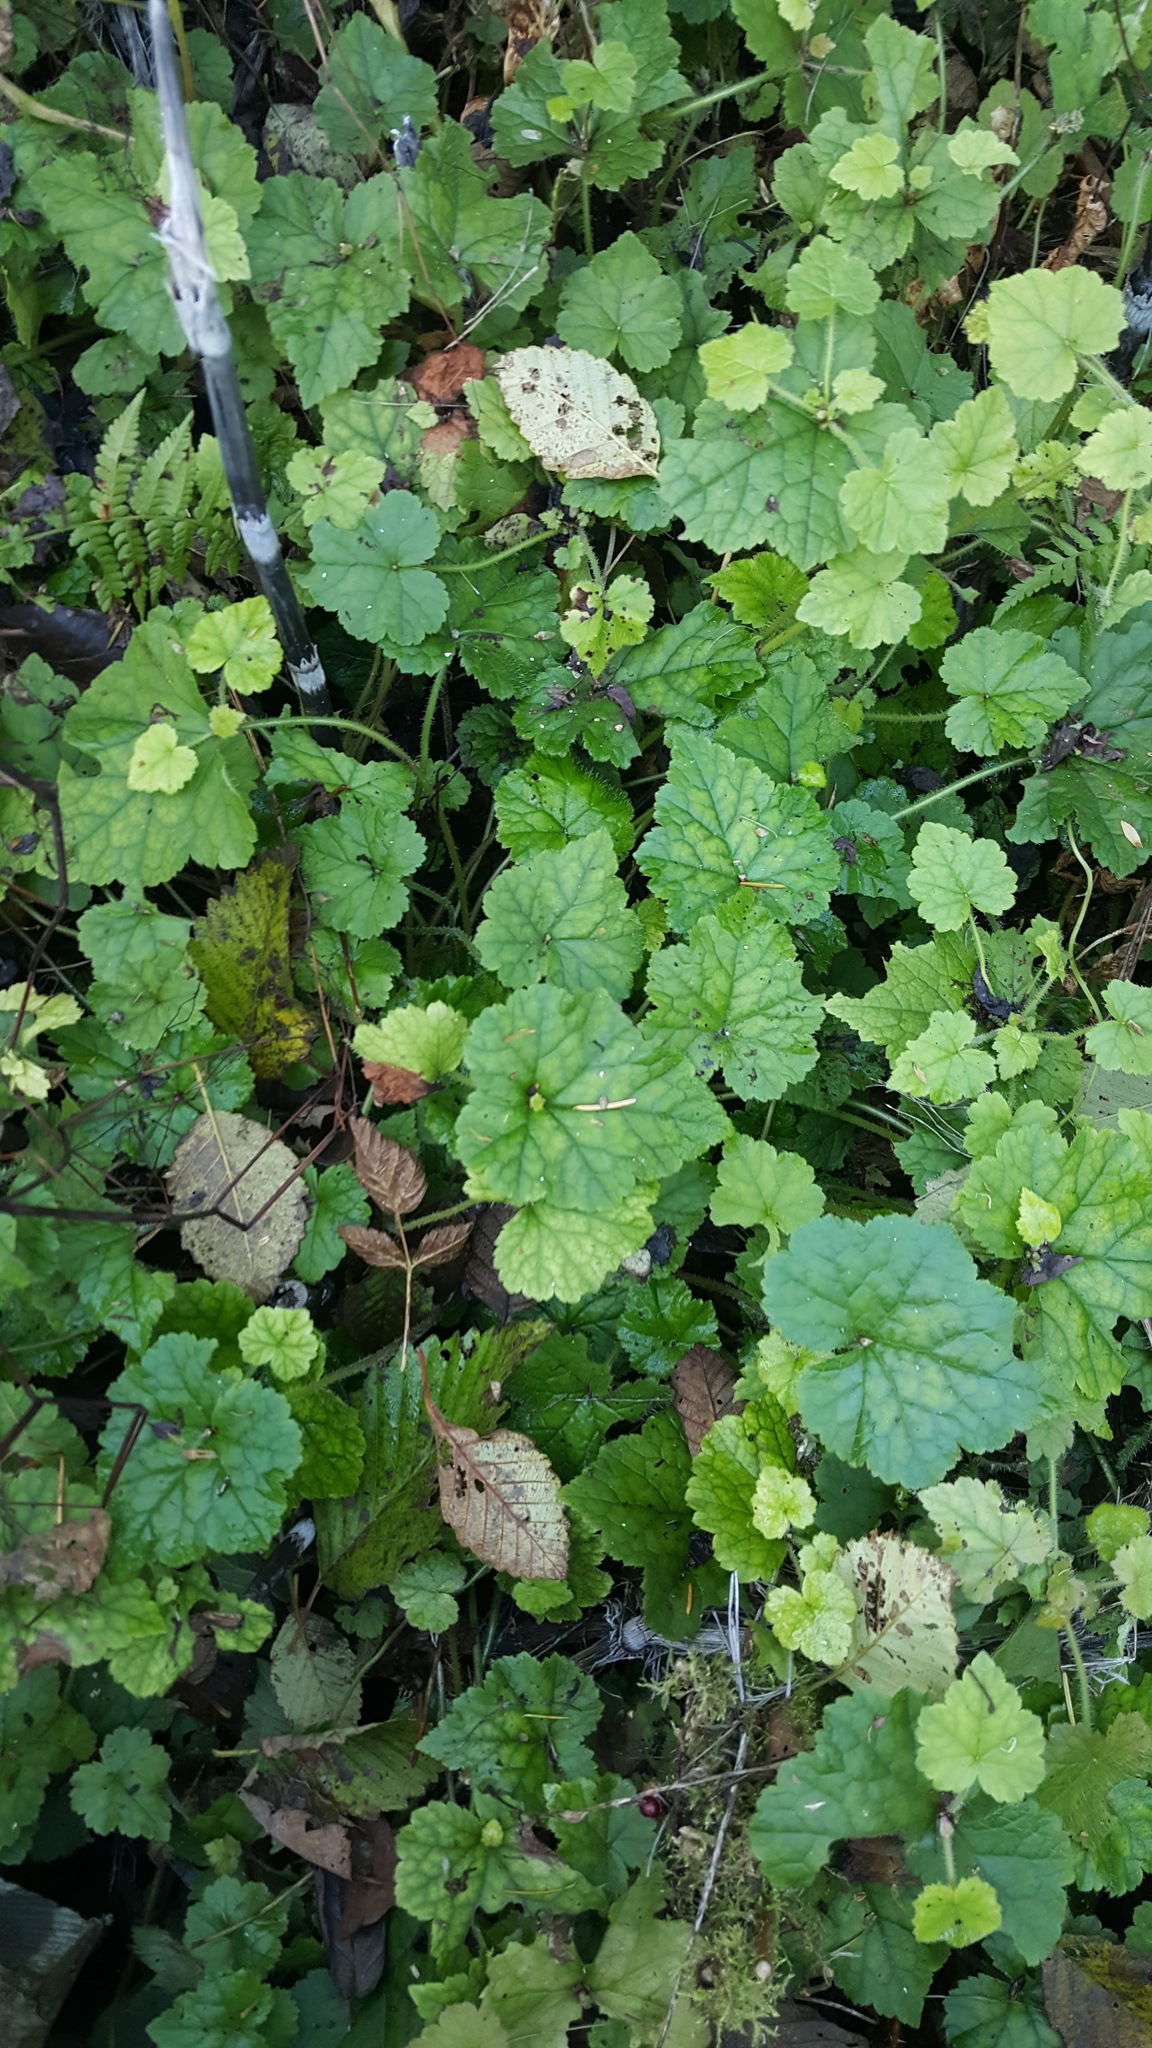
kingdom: Plantae
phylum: Tracheophyta
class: Magnoliopsida
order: Saxifragales
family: Saxifragaceae
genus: Tolmiea
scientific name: Tolmiea menziesii
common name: Pick-a-back-plant
